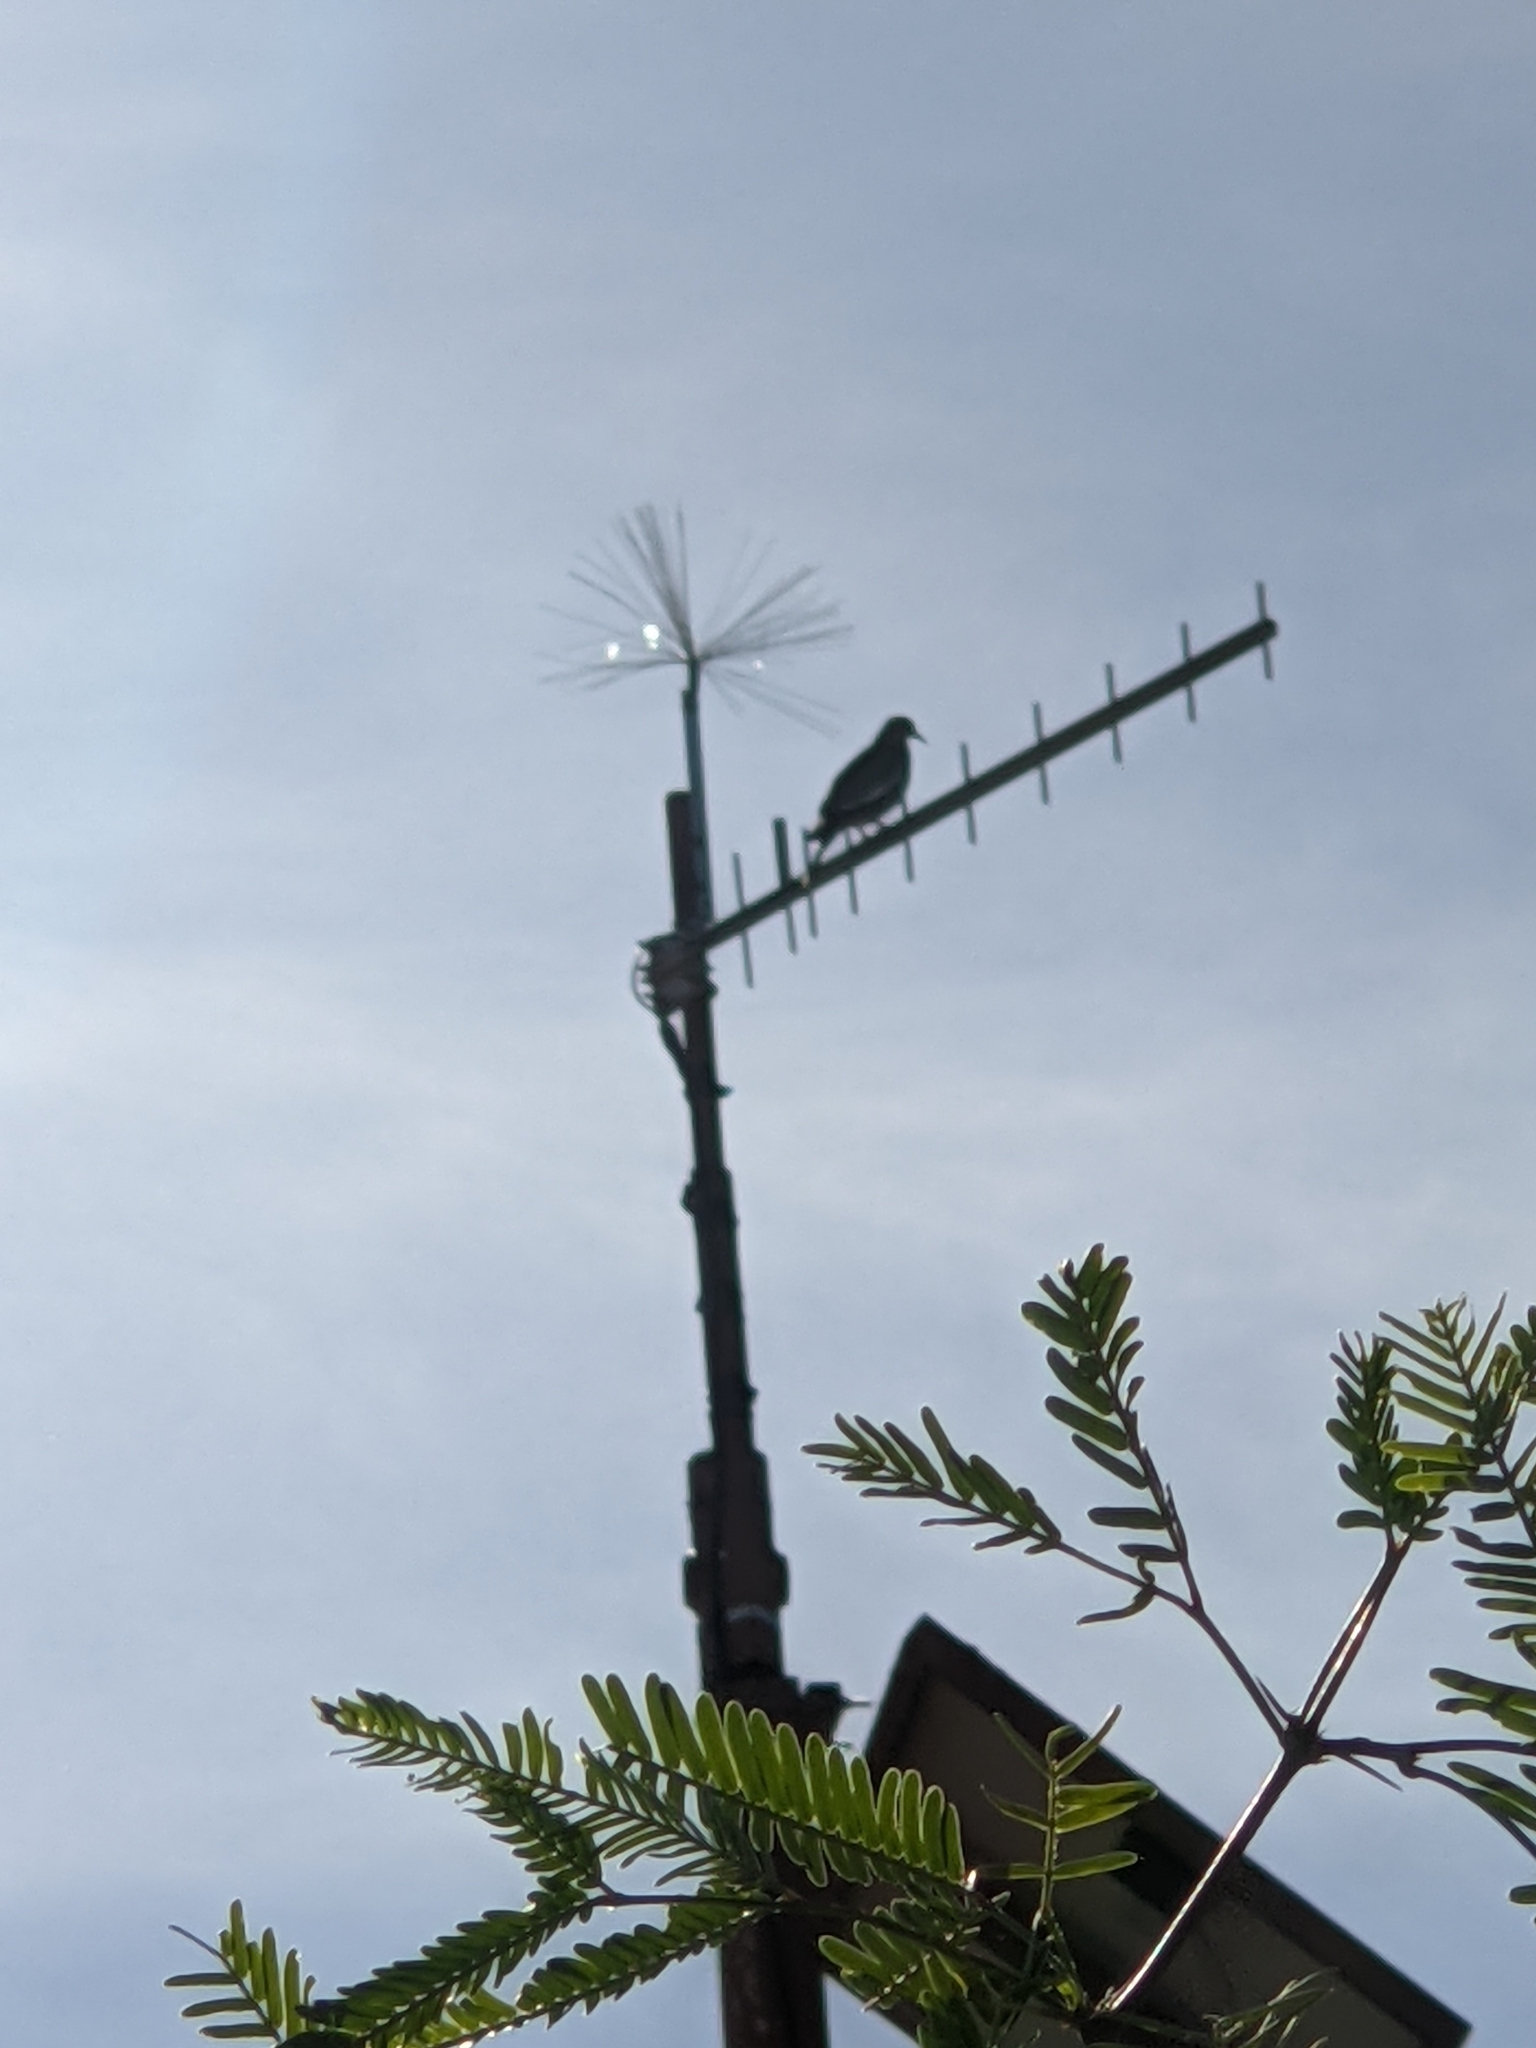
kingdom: Animalia
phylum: Chordata
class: Aves
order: Columbiformes
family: Columbidae
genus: Zenaida
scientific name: Zenaida asiatica
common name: White-winged dove
